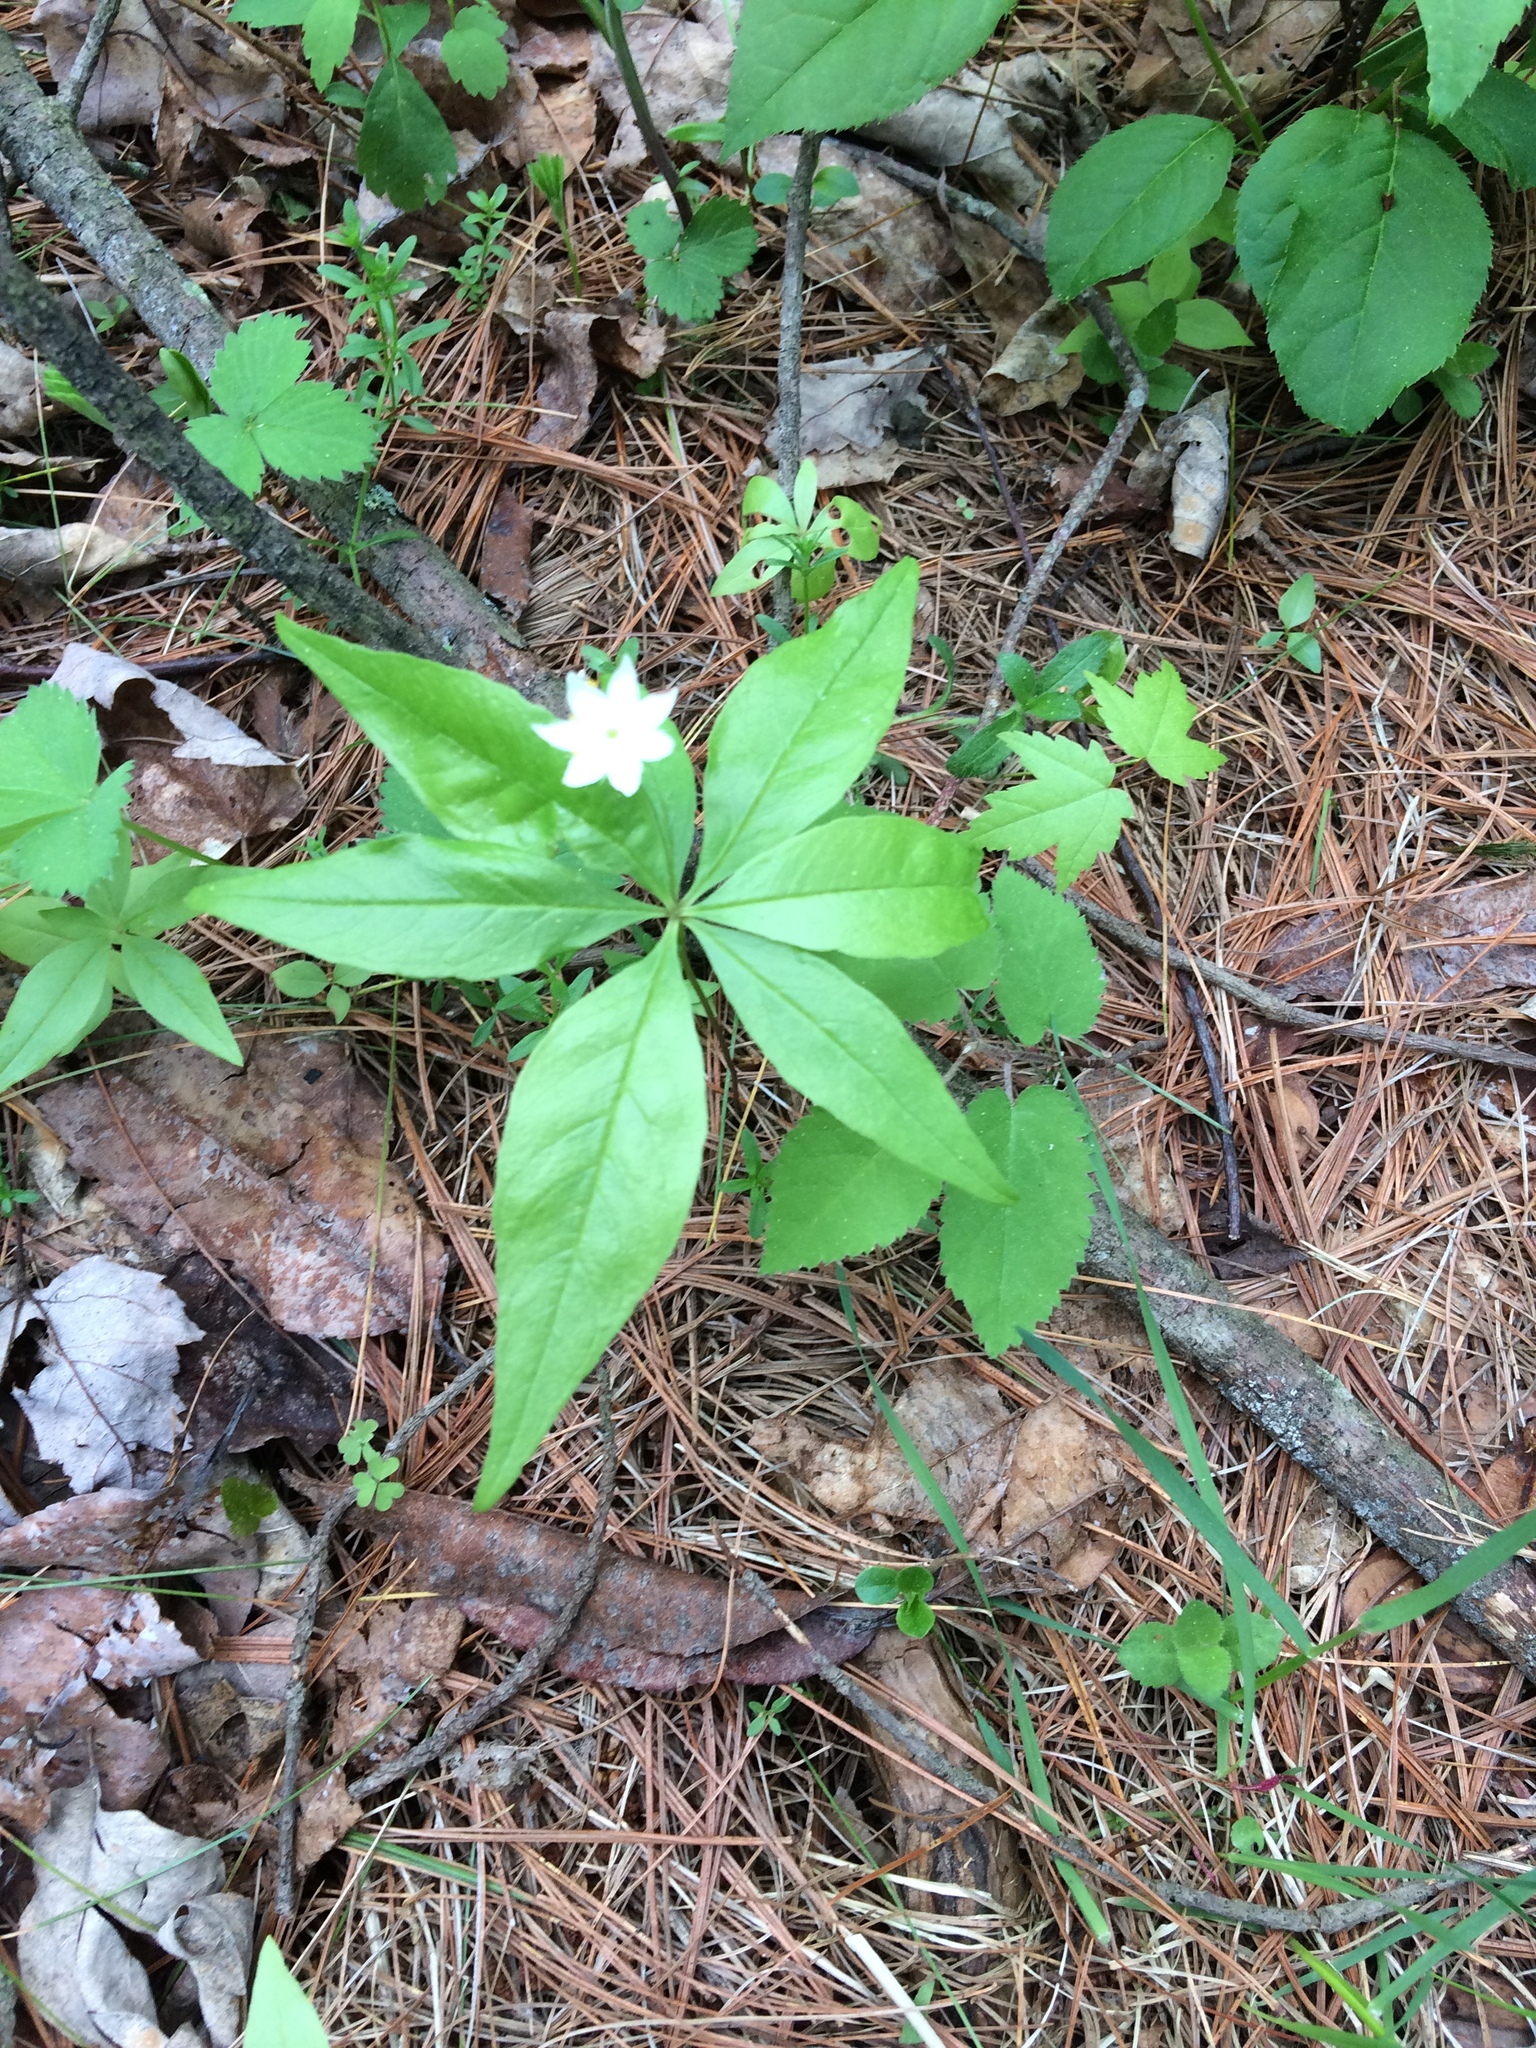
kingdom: Plantae
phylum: Tracheophyta
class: Magnoliopsida
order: Ericales
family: Primulaceae
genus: Lysimachia
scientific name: Lysimachia borealis
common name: American starflower
